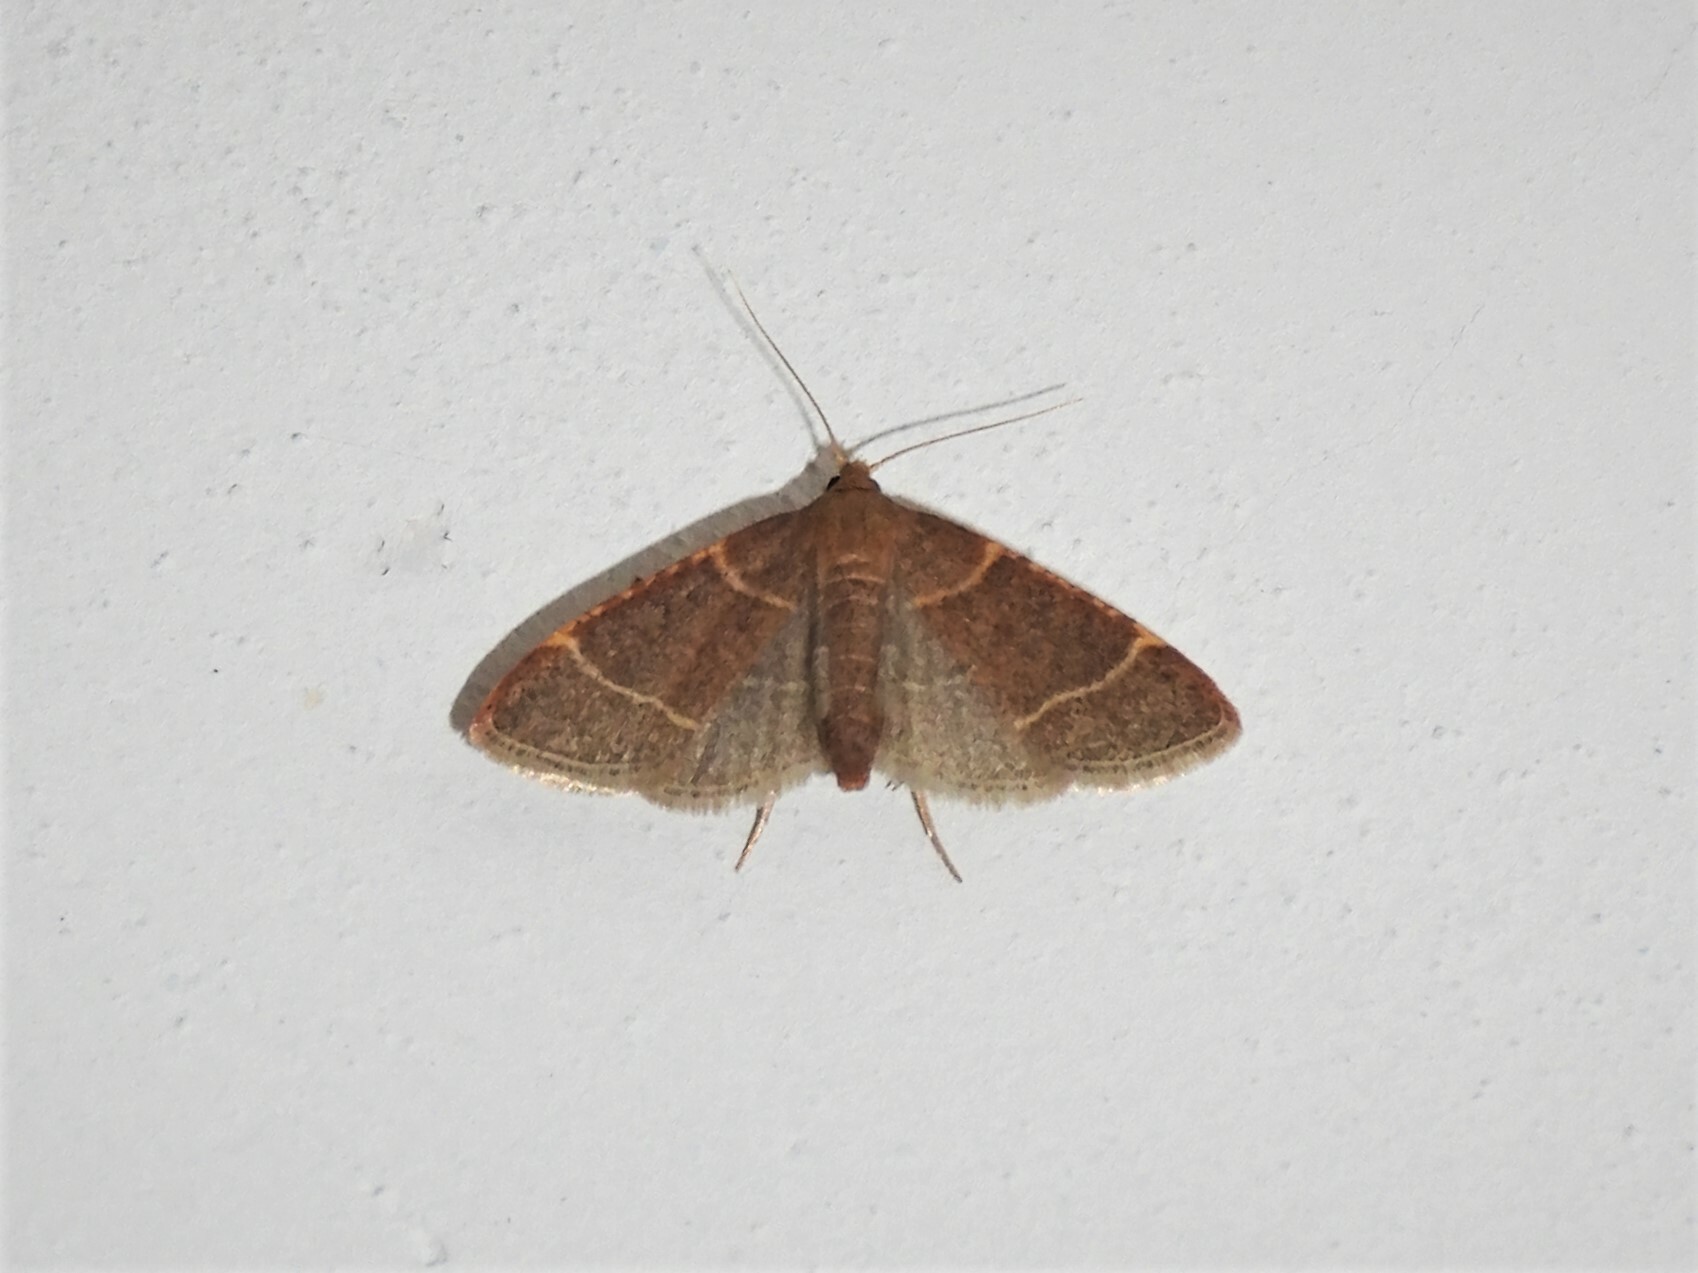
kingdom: Animalia
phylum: Arthropoda
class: Insecta
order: Lepidoptera
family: Pyralidae
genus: Hypsopygia
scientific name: Hypsopygia glaucinalis
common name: Double-striped tabby
